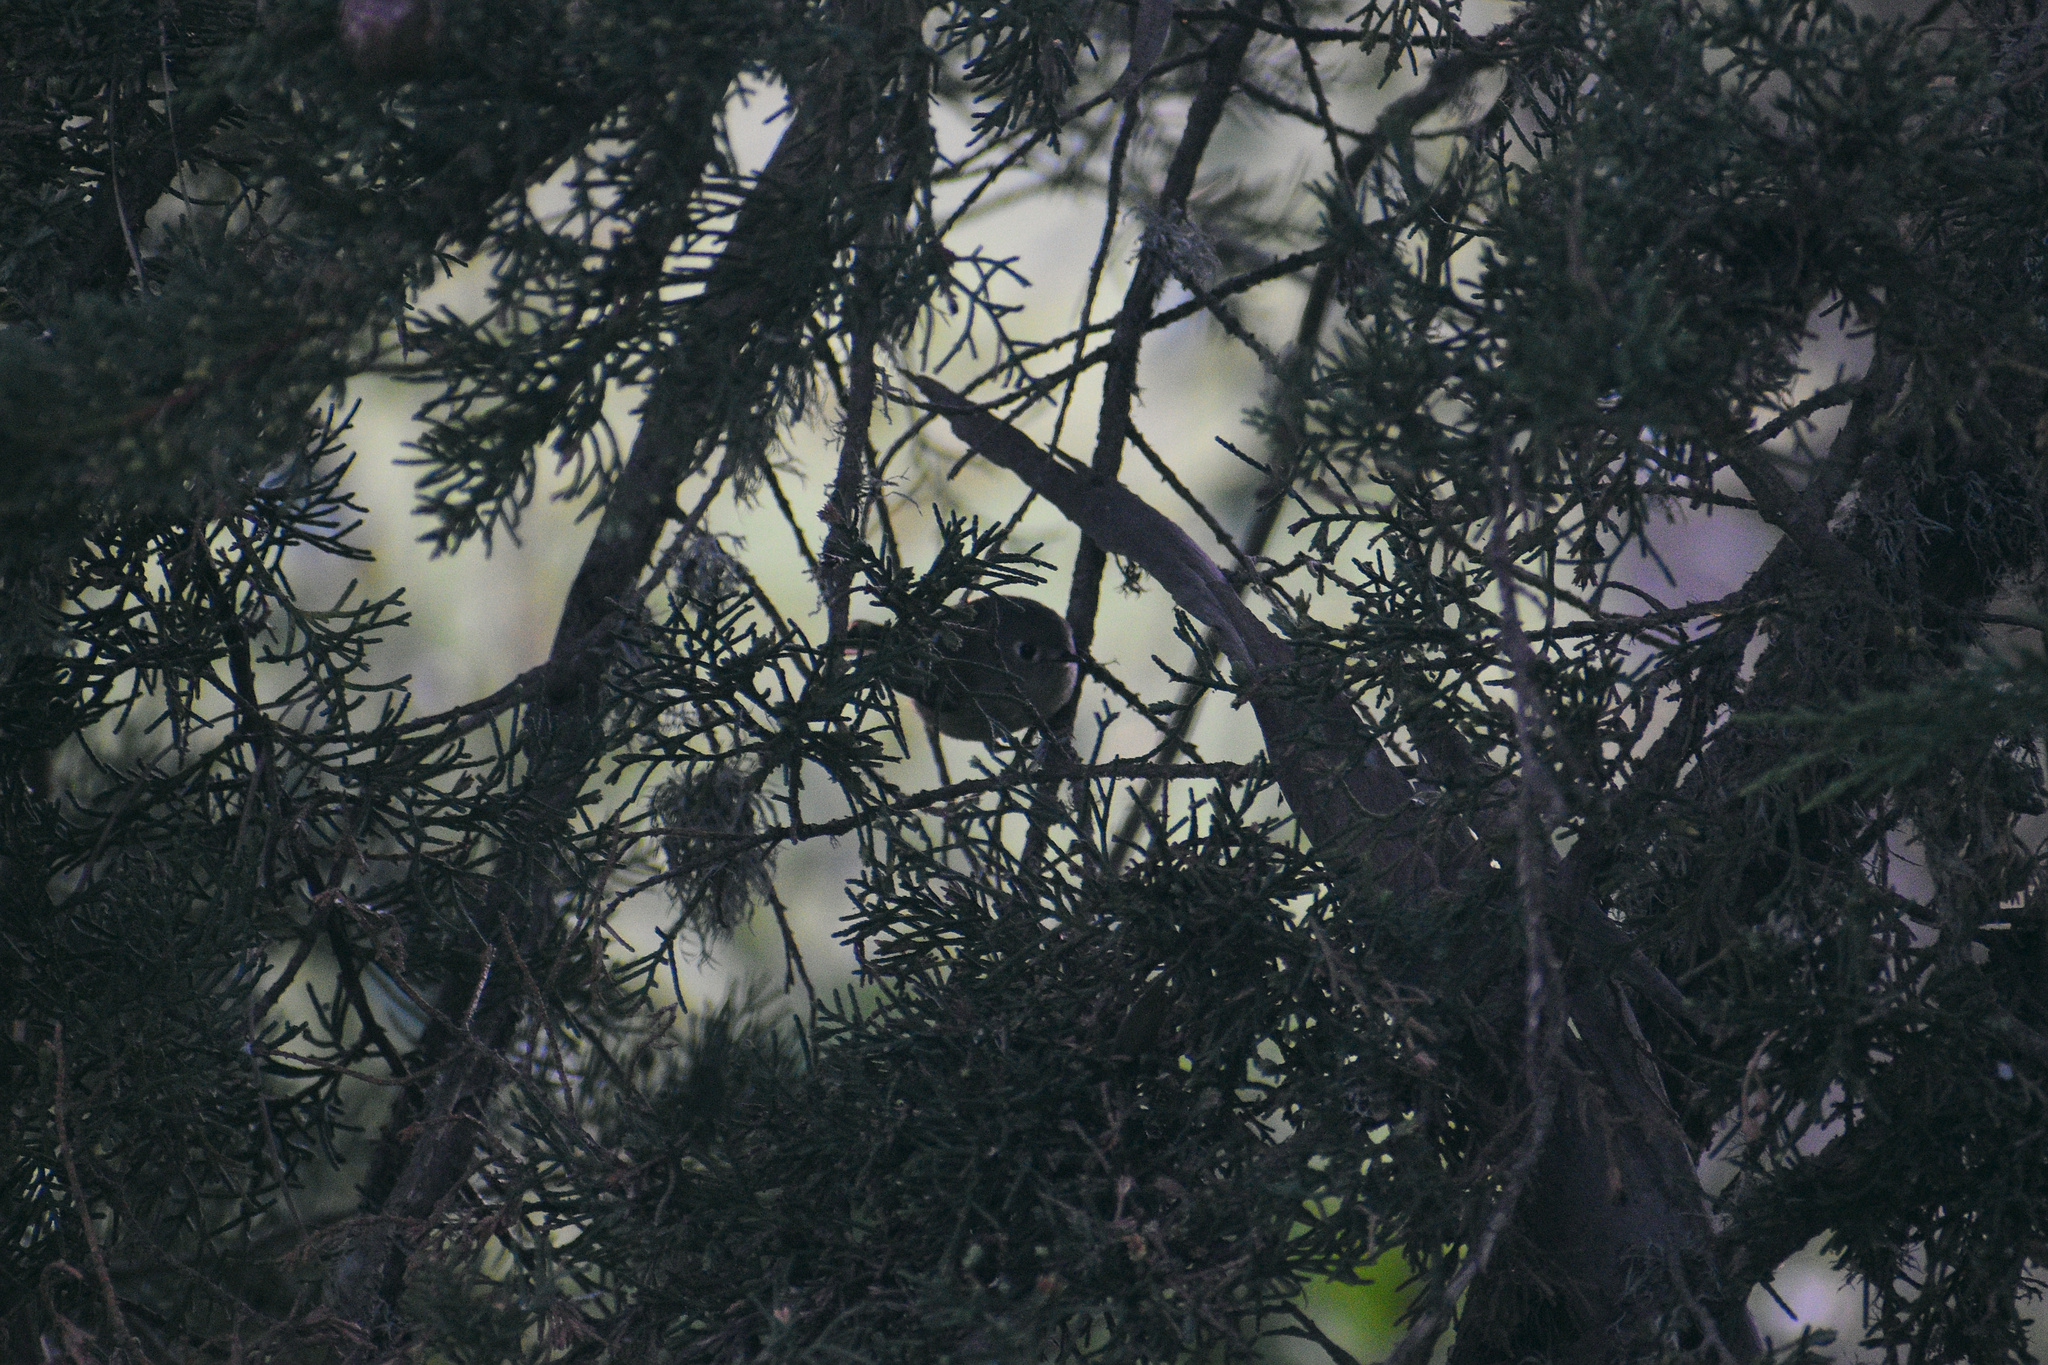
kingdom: Animalia
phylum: Chordata
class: Aves
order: Passeriformes
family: Regulidae
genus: Regulus
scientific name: Regulus calendula
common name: Ruby-crowned kinglet
